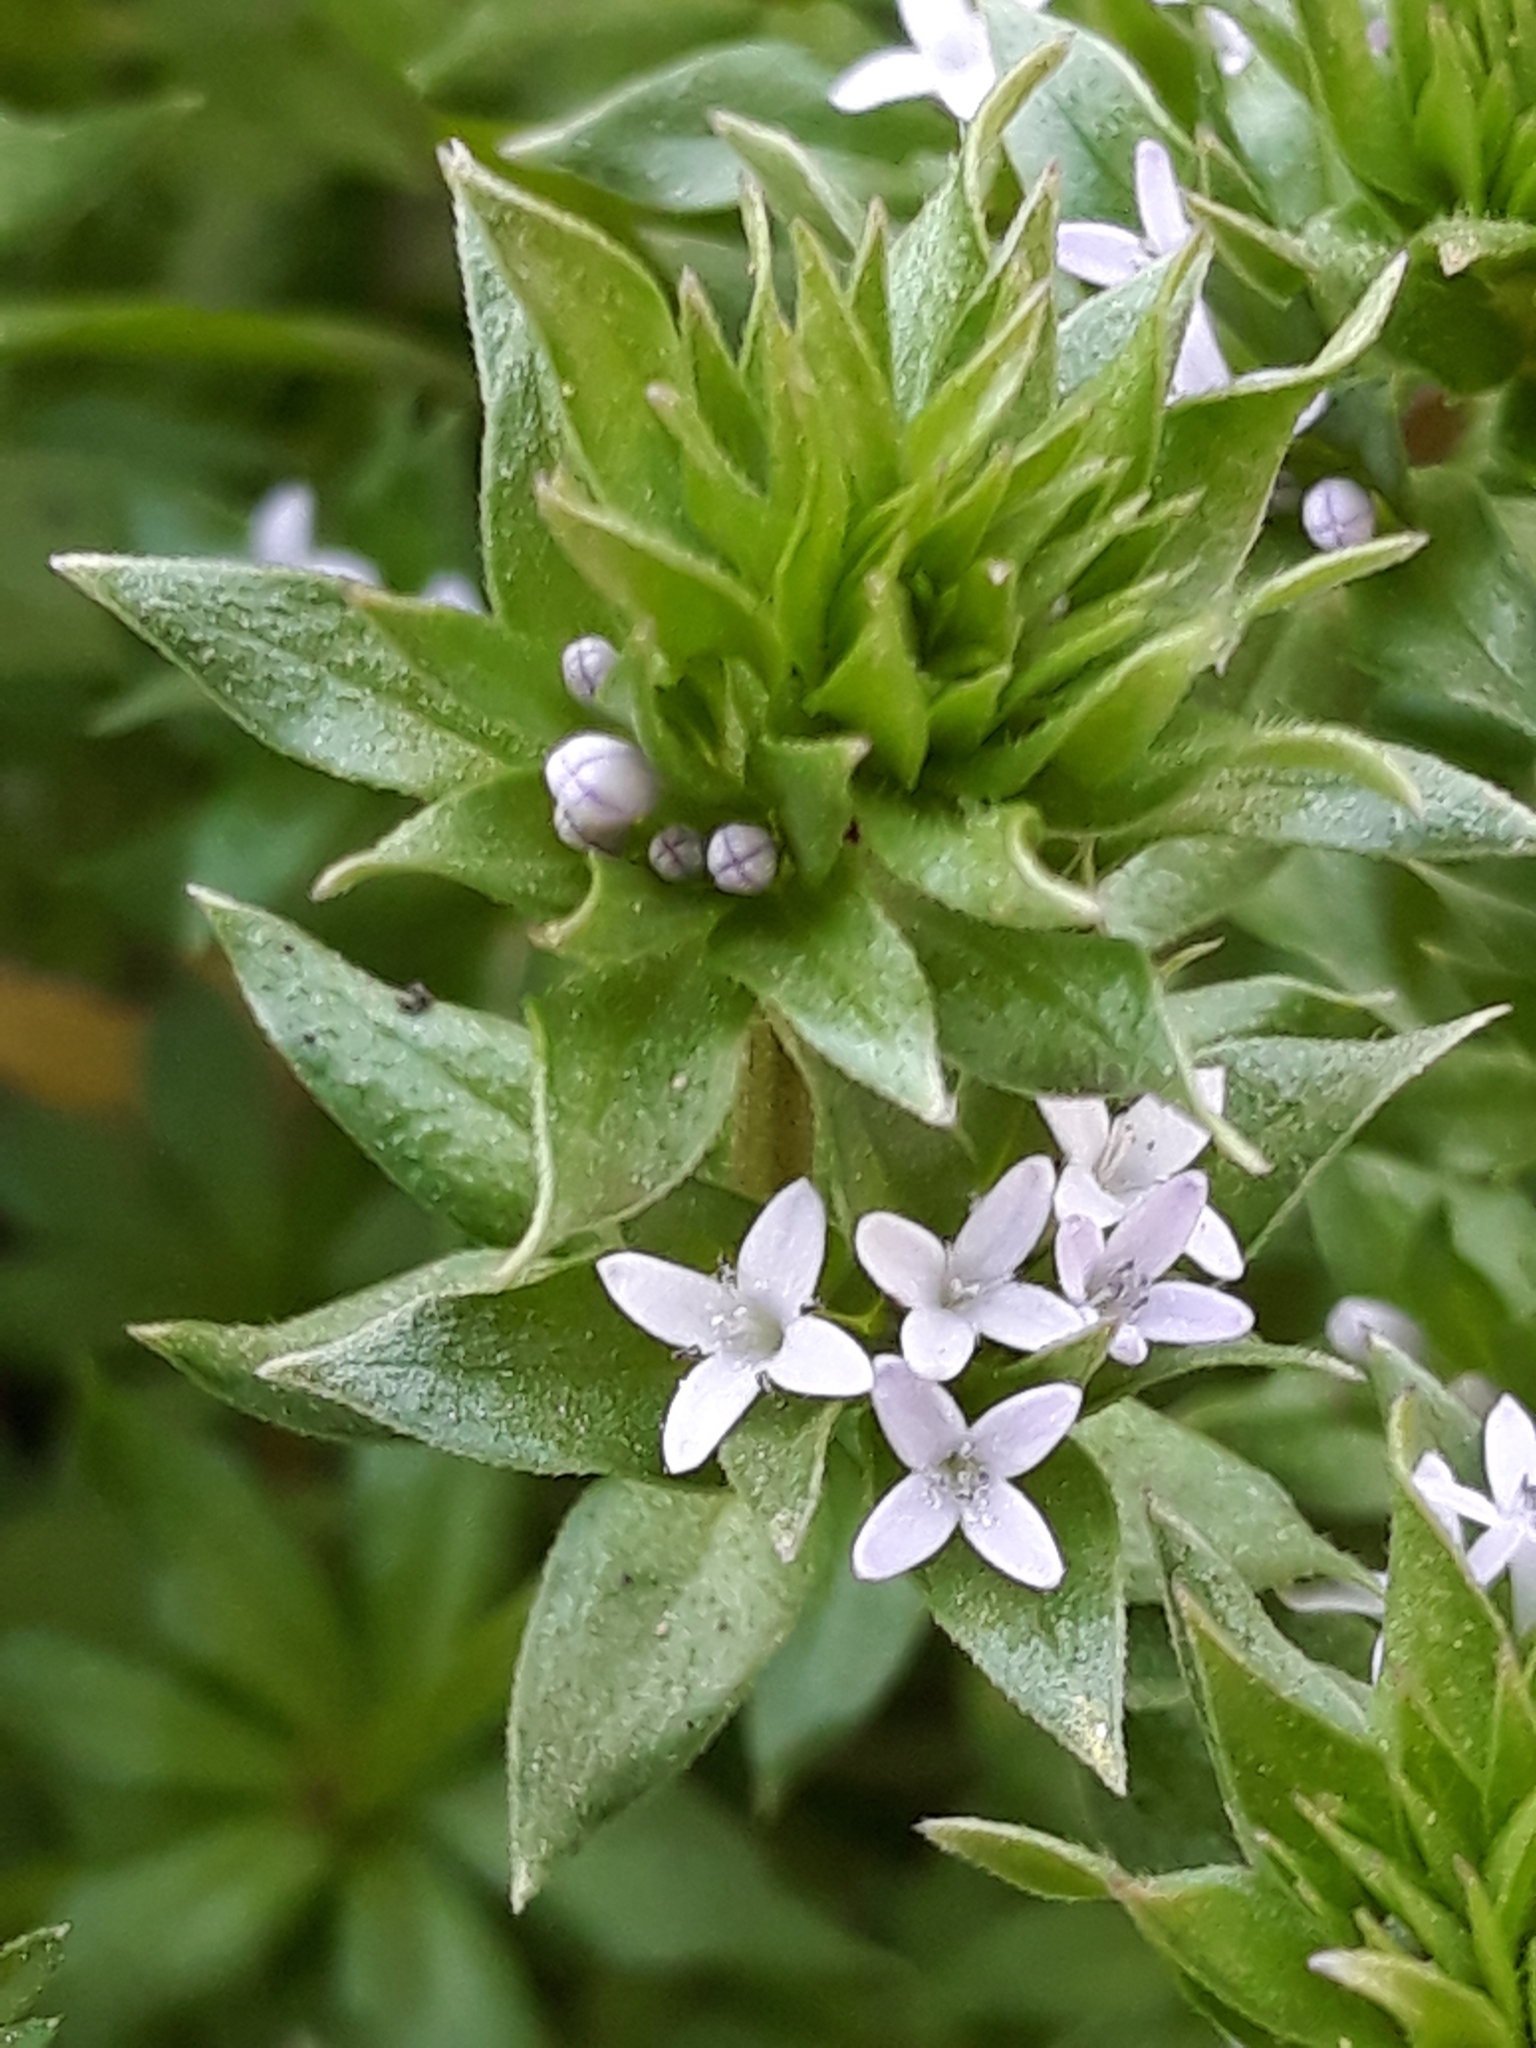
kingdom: Plantae
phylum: Tracheophyta
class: Magnoliopsida
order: Gentianales
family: Rubiaceae
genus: Sherardia
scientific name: Sherardia arvensis
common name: Field madder
